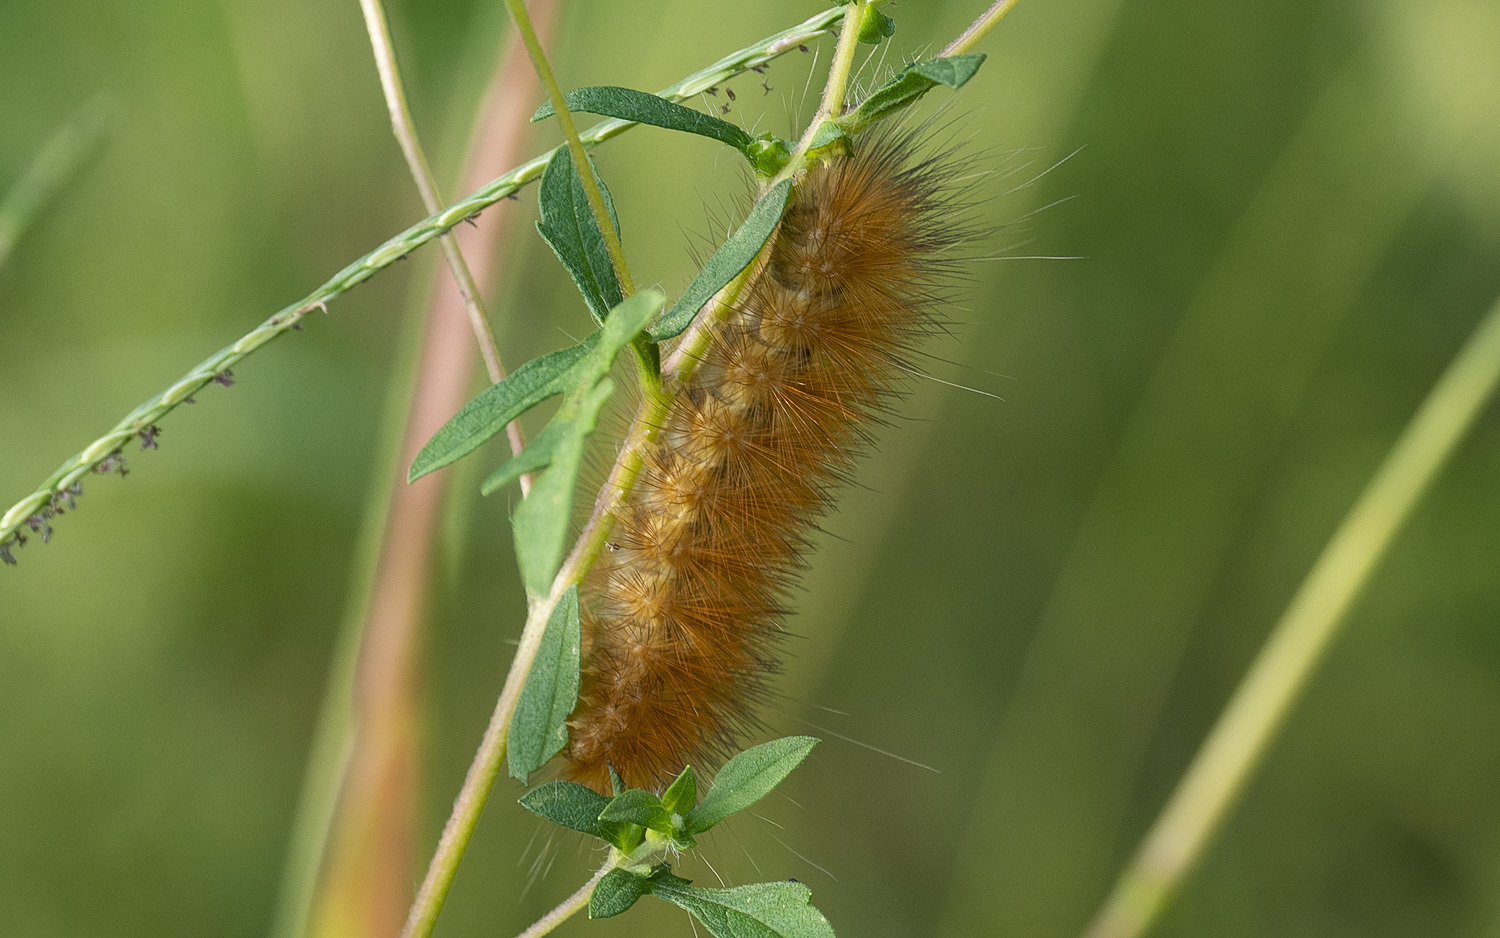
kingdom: Animalia
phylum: Arthropoda
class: Insecta
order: Lepidoptera
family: Erebidae
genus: Spilosoma
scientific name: Spilosoma virginica
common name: Virginia tiger moth
